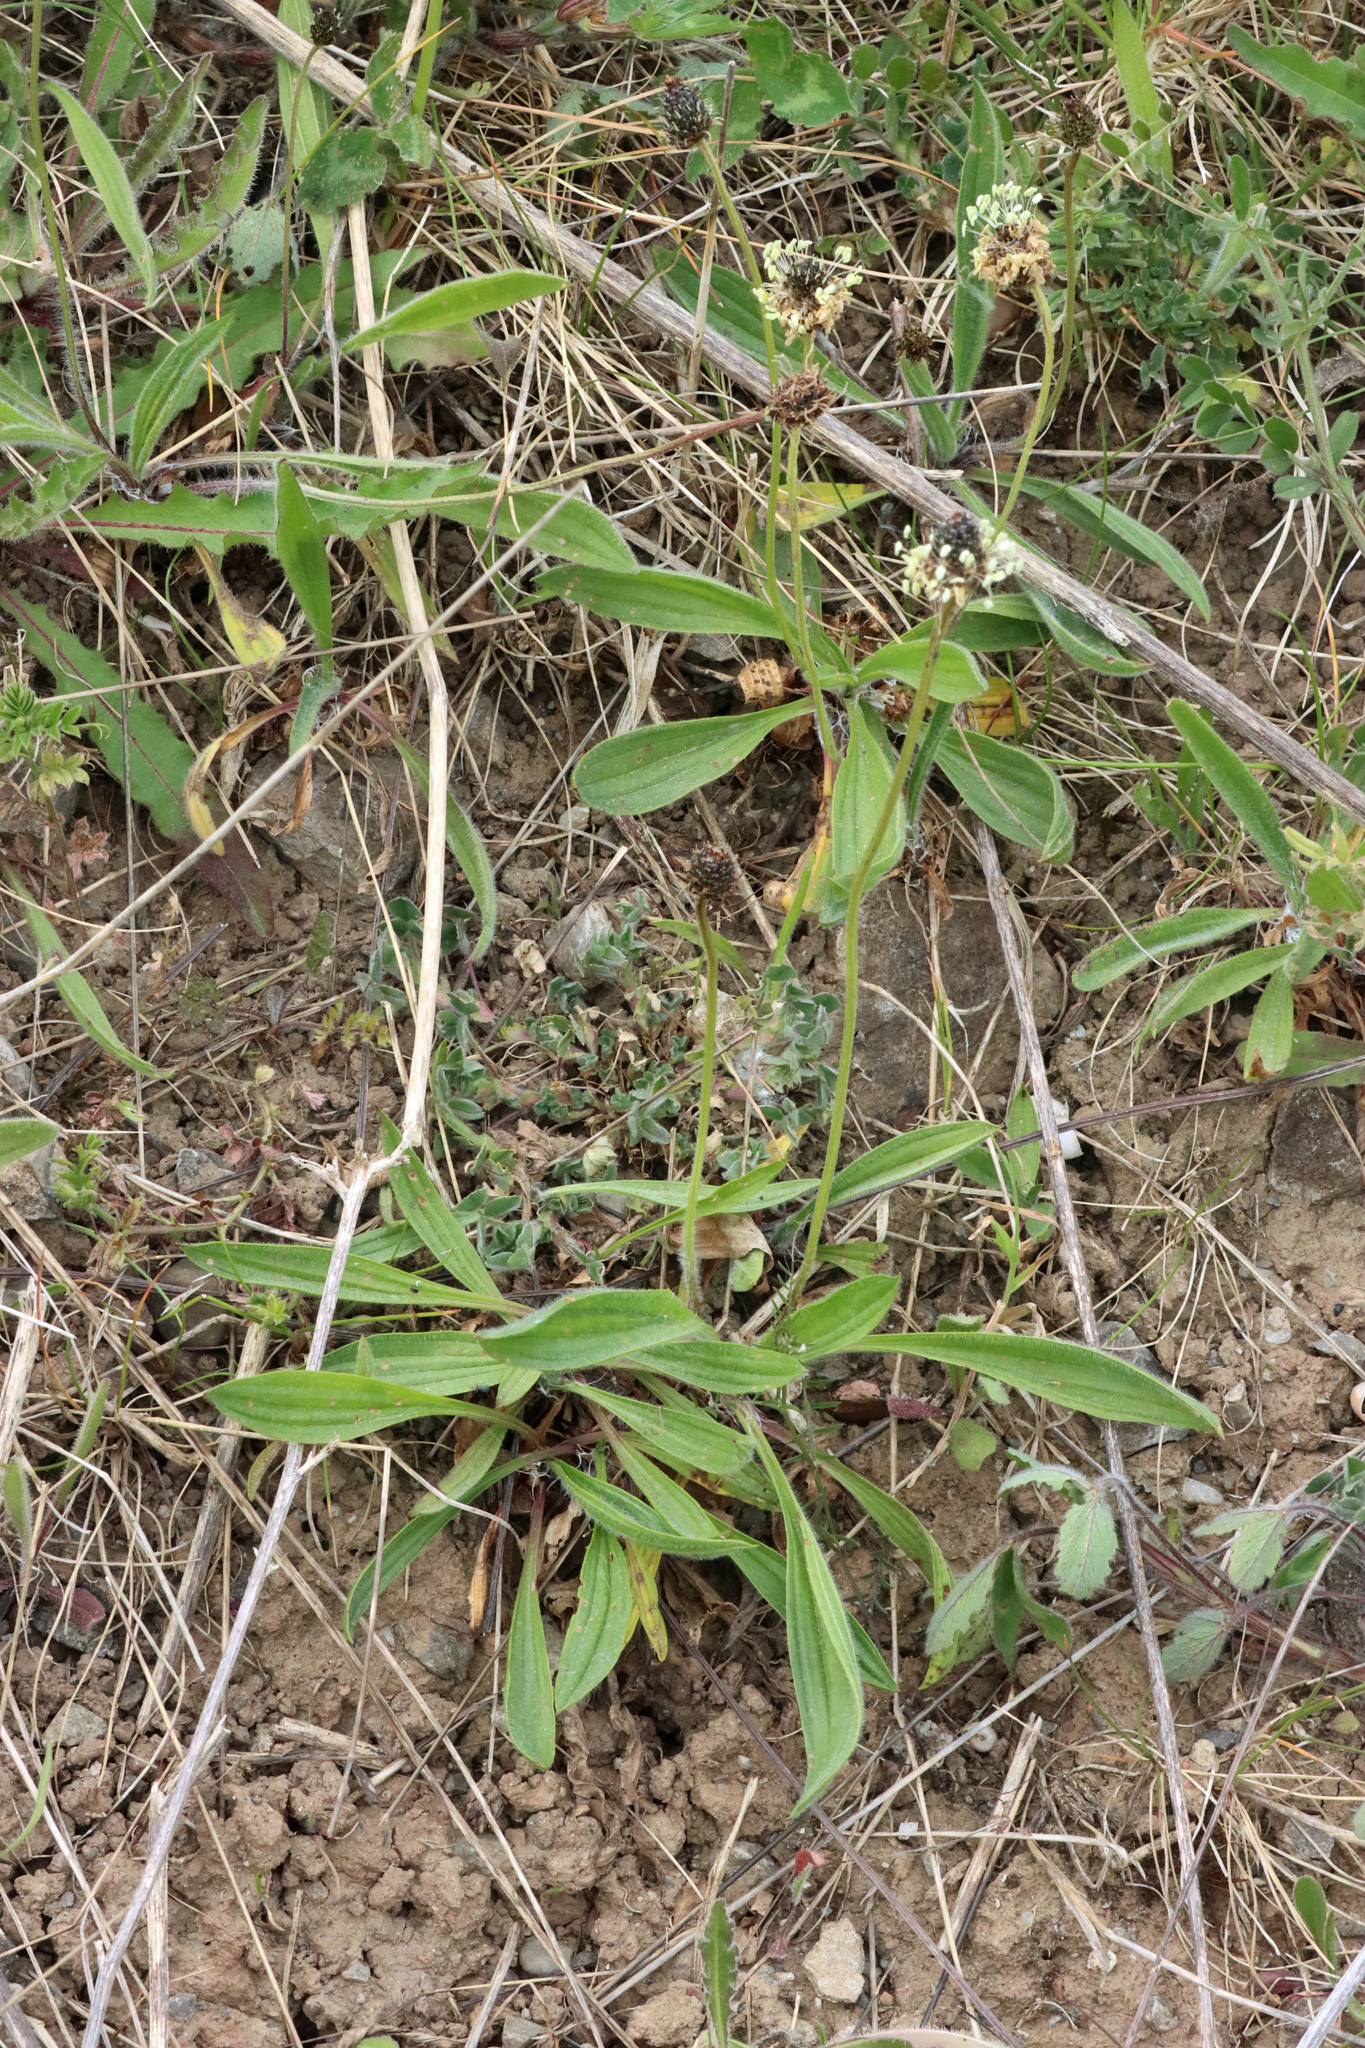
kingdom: Plantae
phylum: Tracheophyta
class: Magnoliopsida
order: Lamiales
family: Plantaginaceae
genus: Plantago
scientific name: Plantago lanceolata
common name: Ribwort plantain
